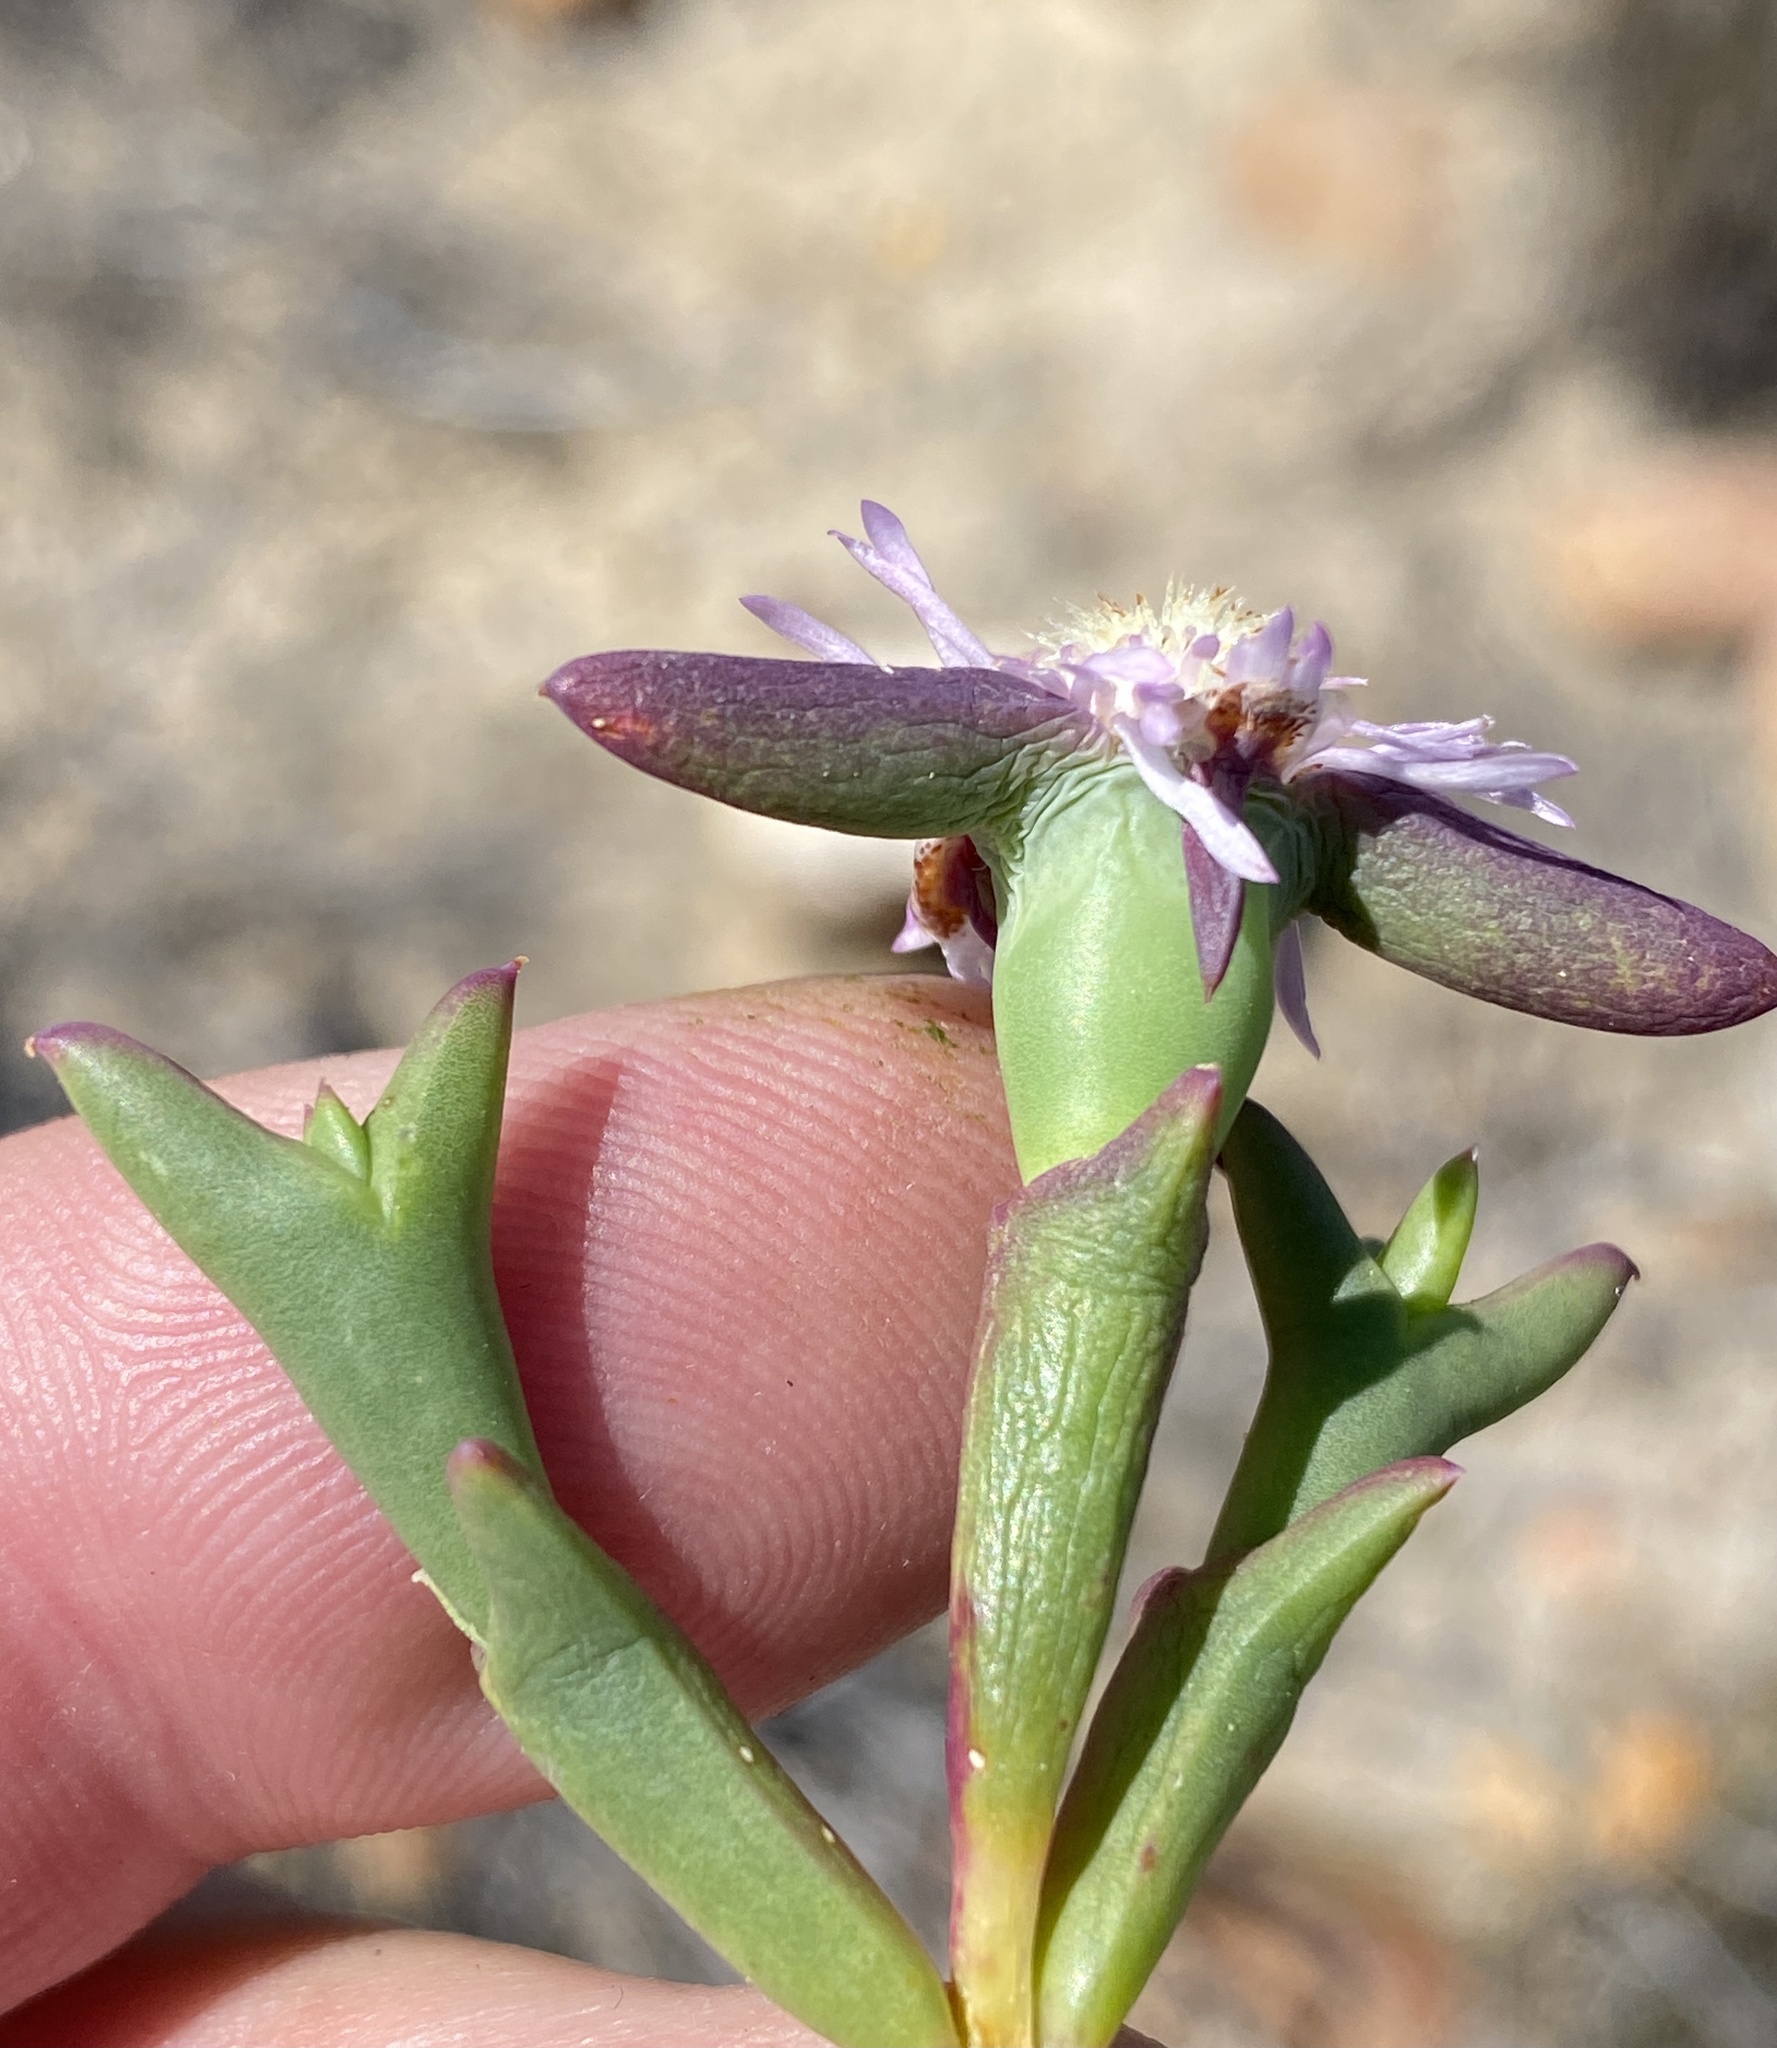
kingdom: Plantae
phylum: Tracheophyta
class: Magnoliopsida
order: Caryophyllales
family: Aizoaceae
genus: Smicrostigma
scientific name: Smicrostigma viride
